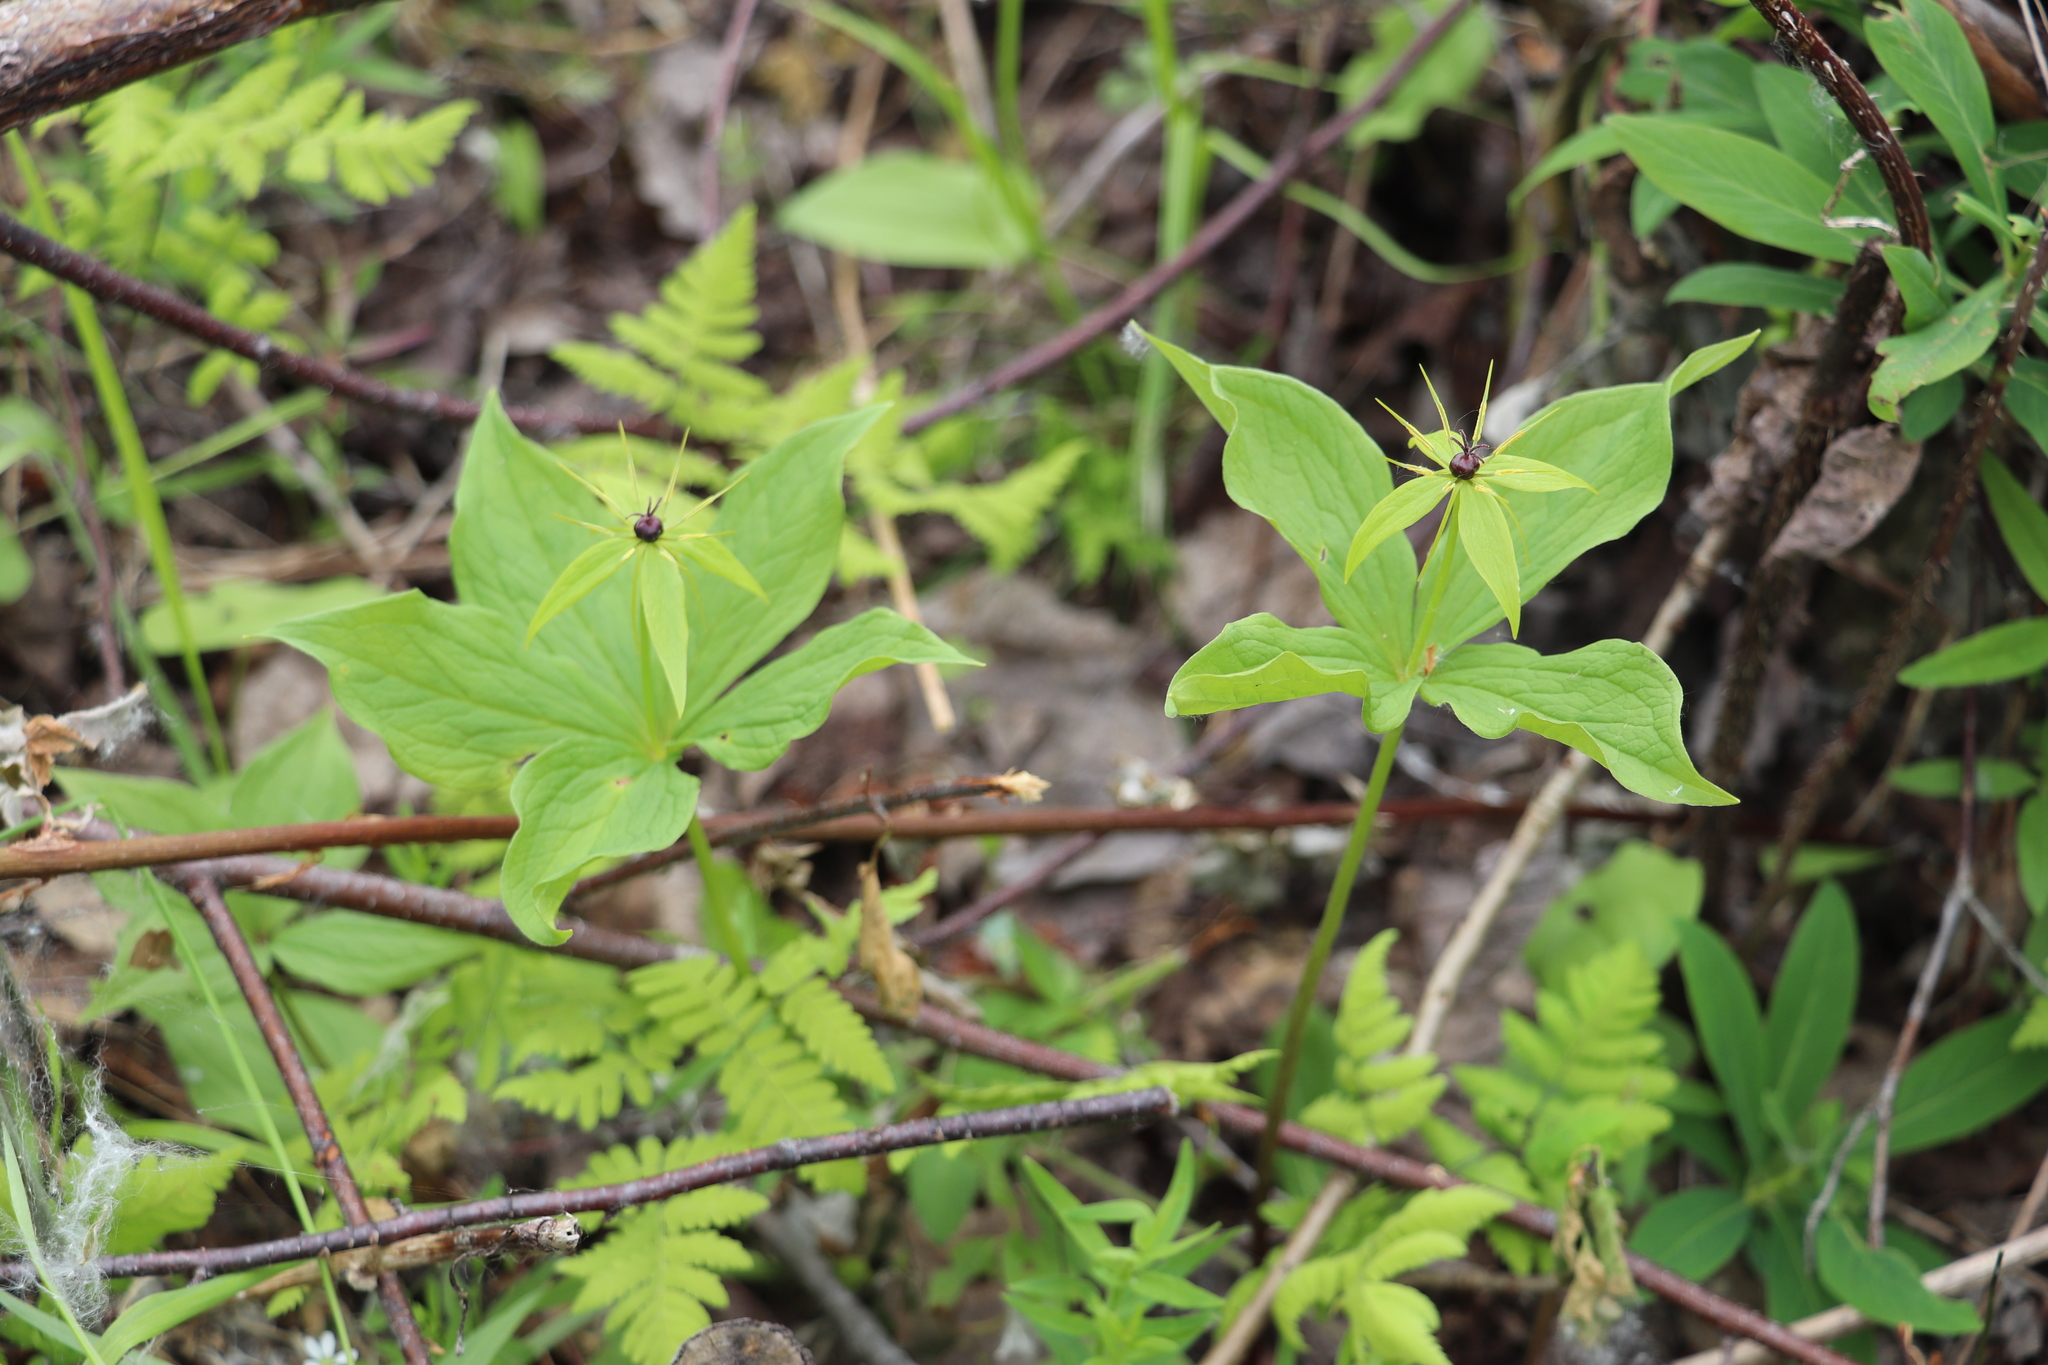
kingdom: Plantae
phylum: Tracheophyta
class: Liliopsida
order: Liliales
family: Melanthiaceae
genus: Paris
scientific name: Paris quadrifolia
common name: Herb-paris
